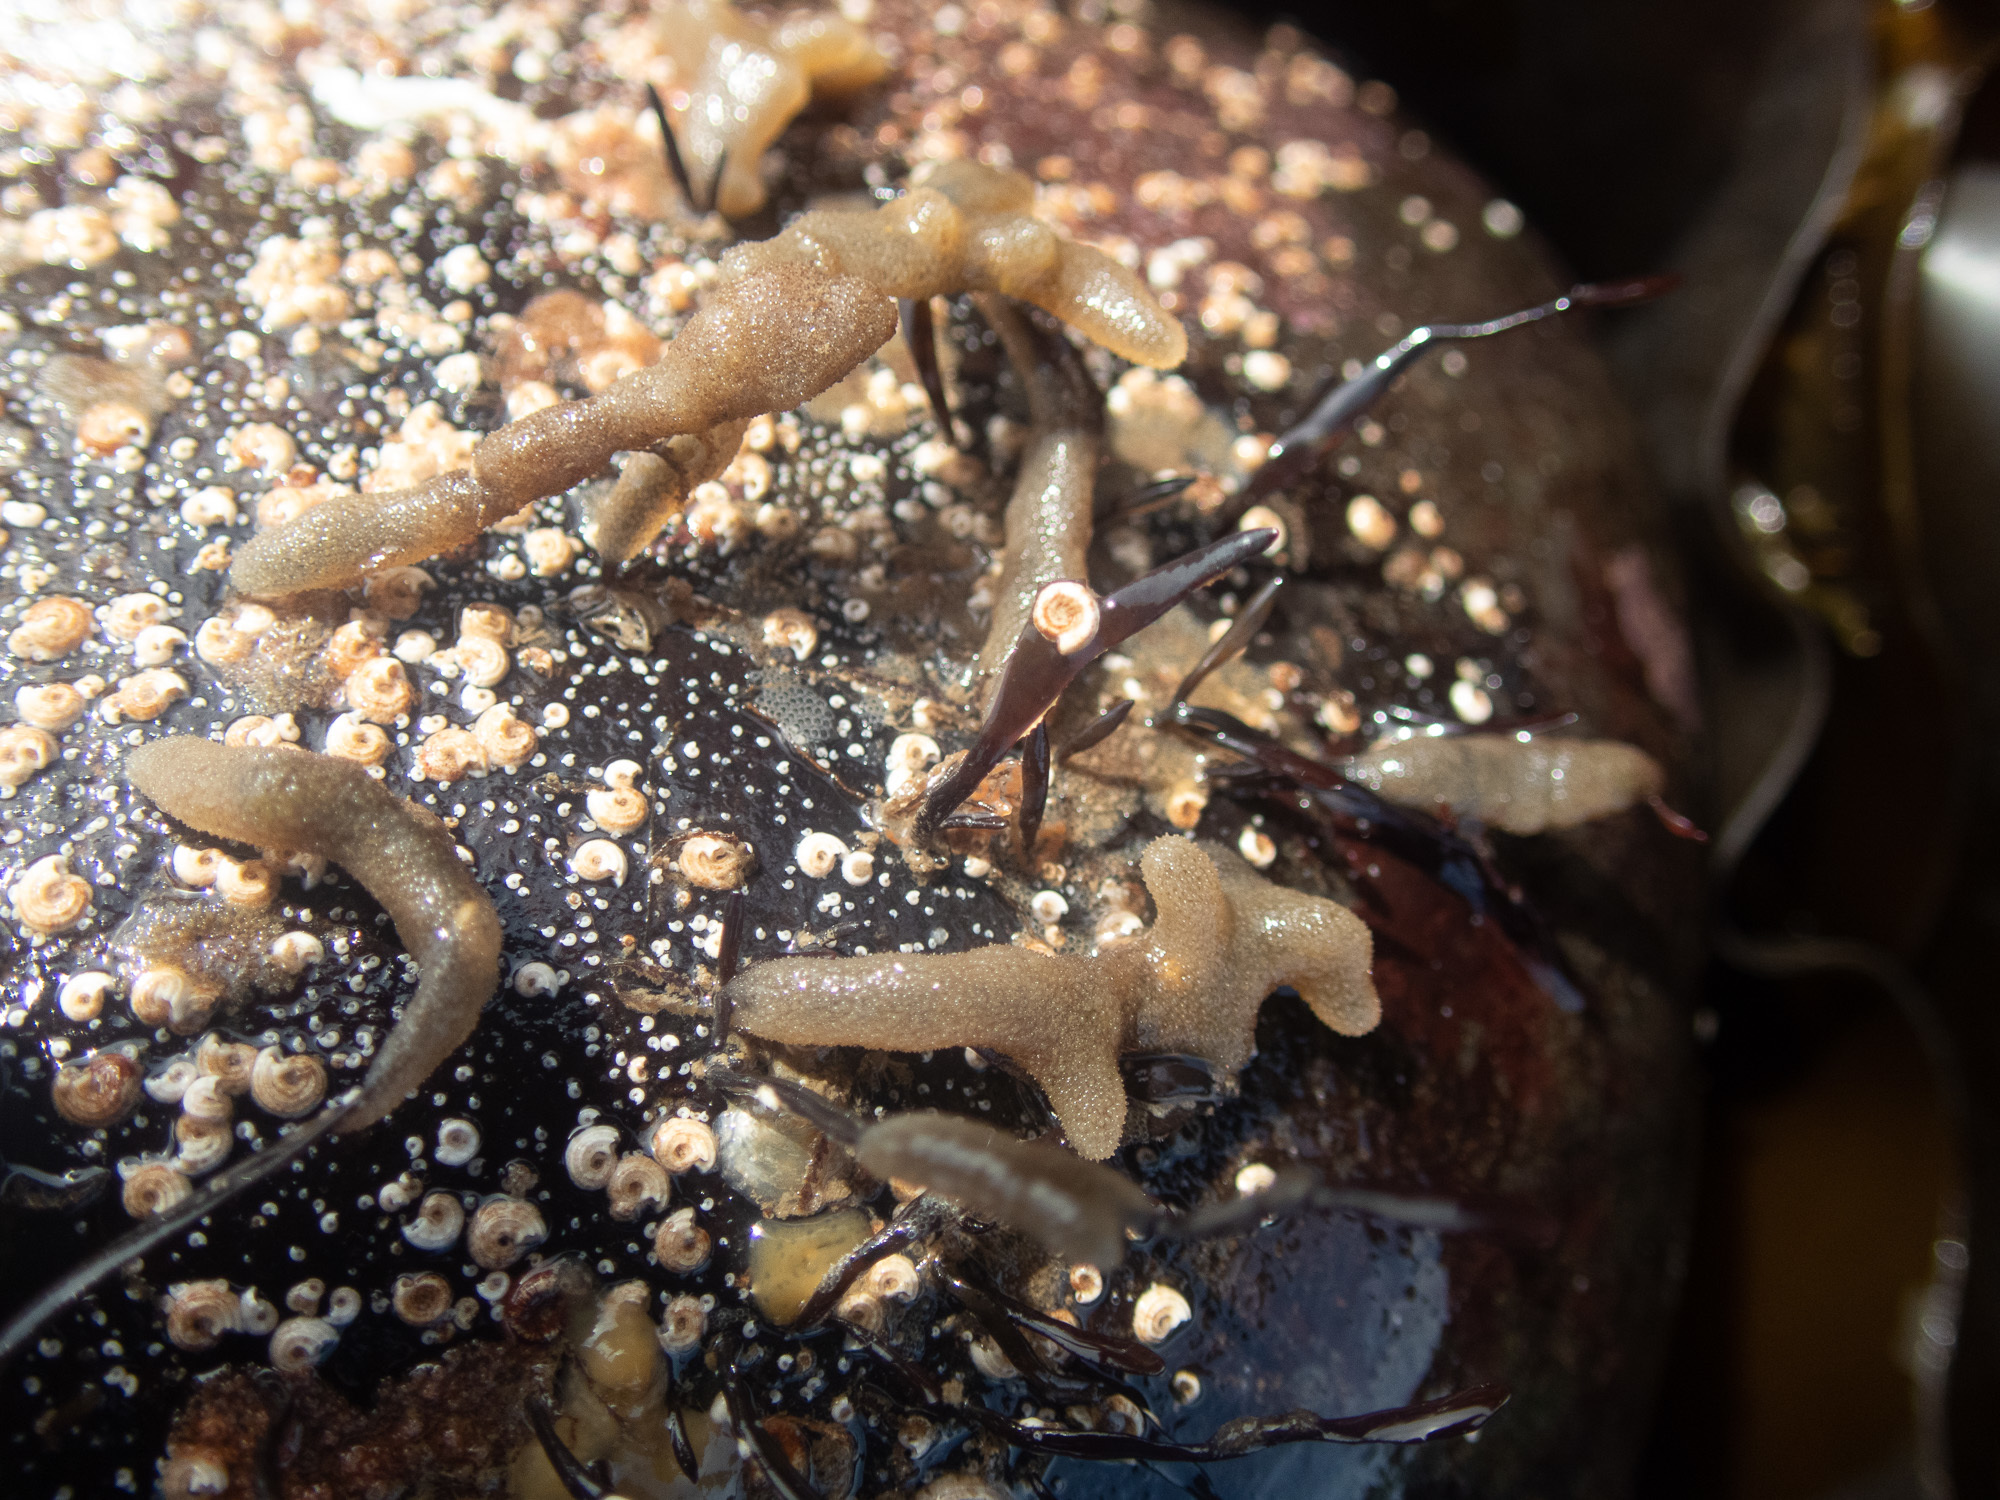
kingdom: Animalia
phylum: Bryozoa
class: Gymnolaemata
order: Ctenostomatida
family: Alcyonidiidae
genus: Alcyonidium
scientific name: Alcyonidium hirsutum
